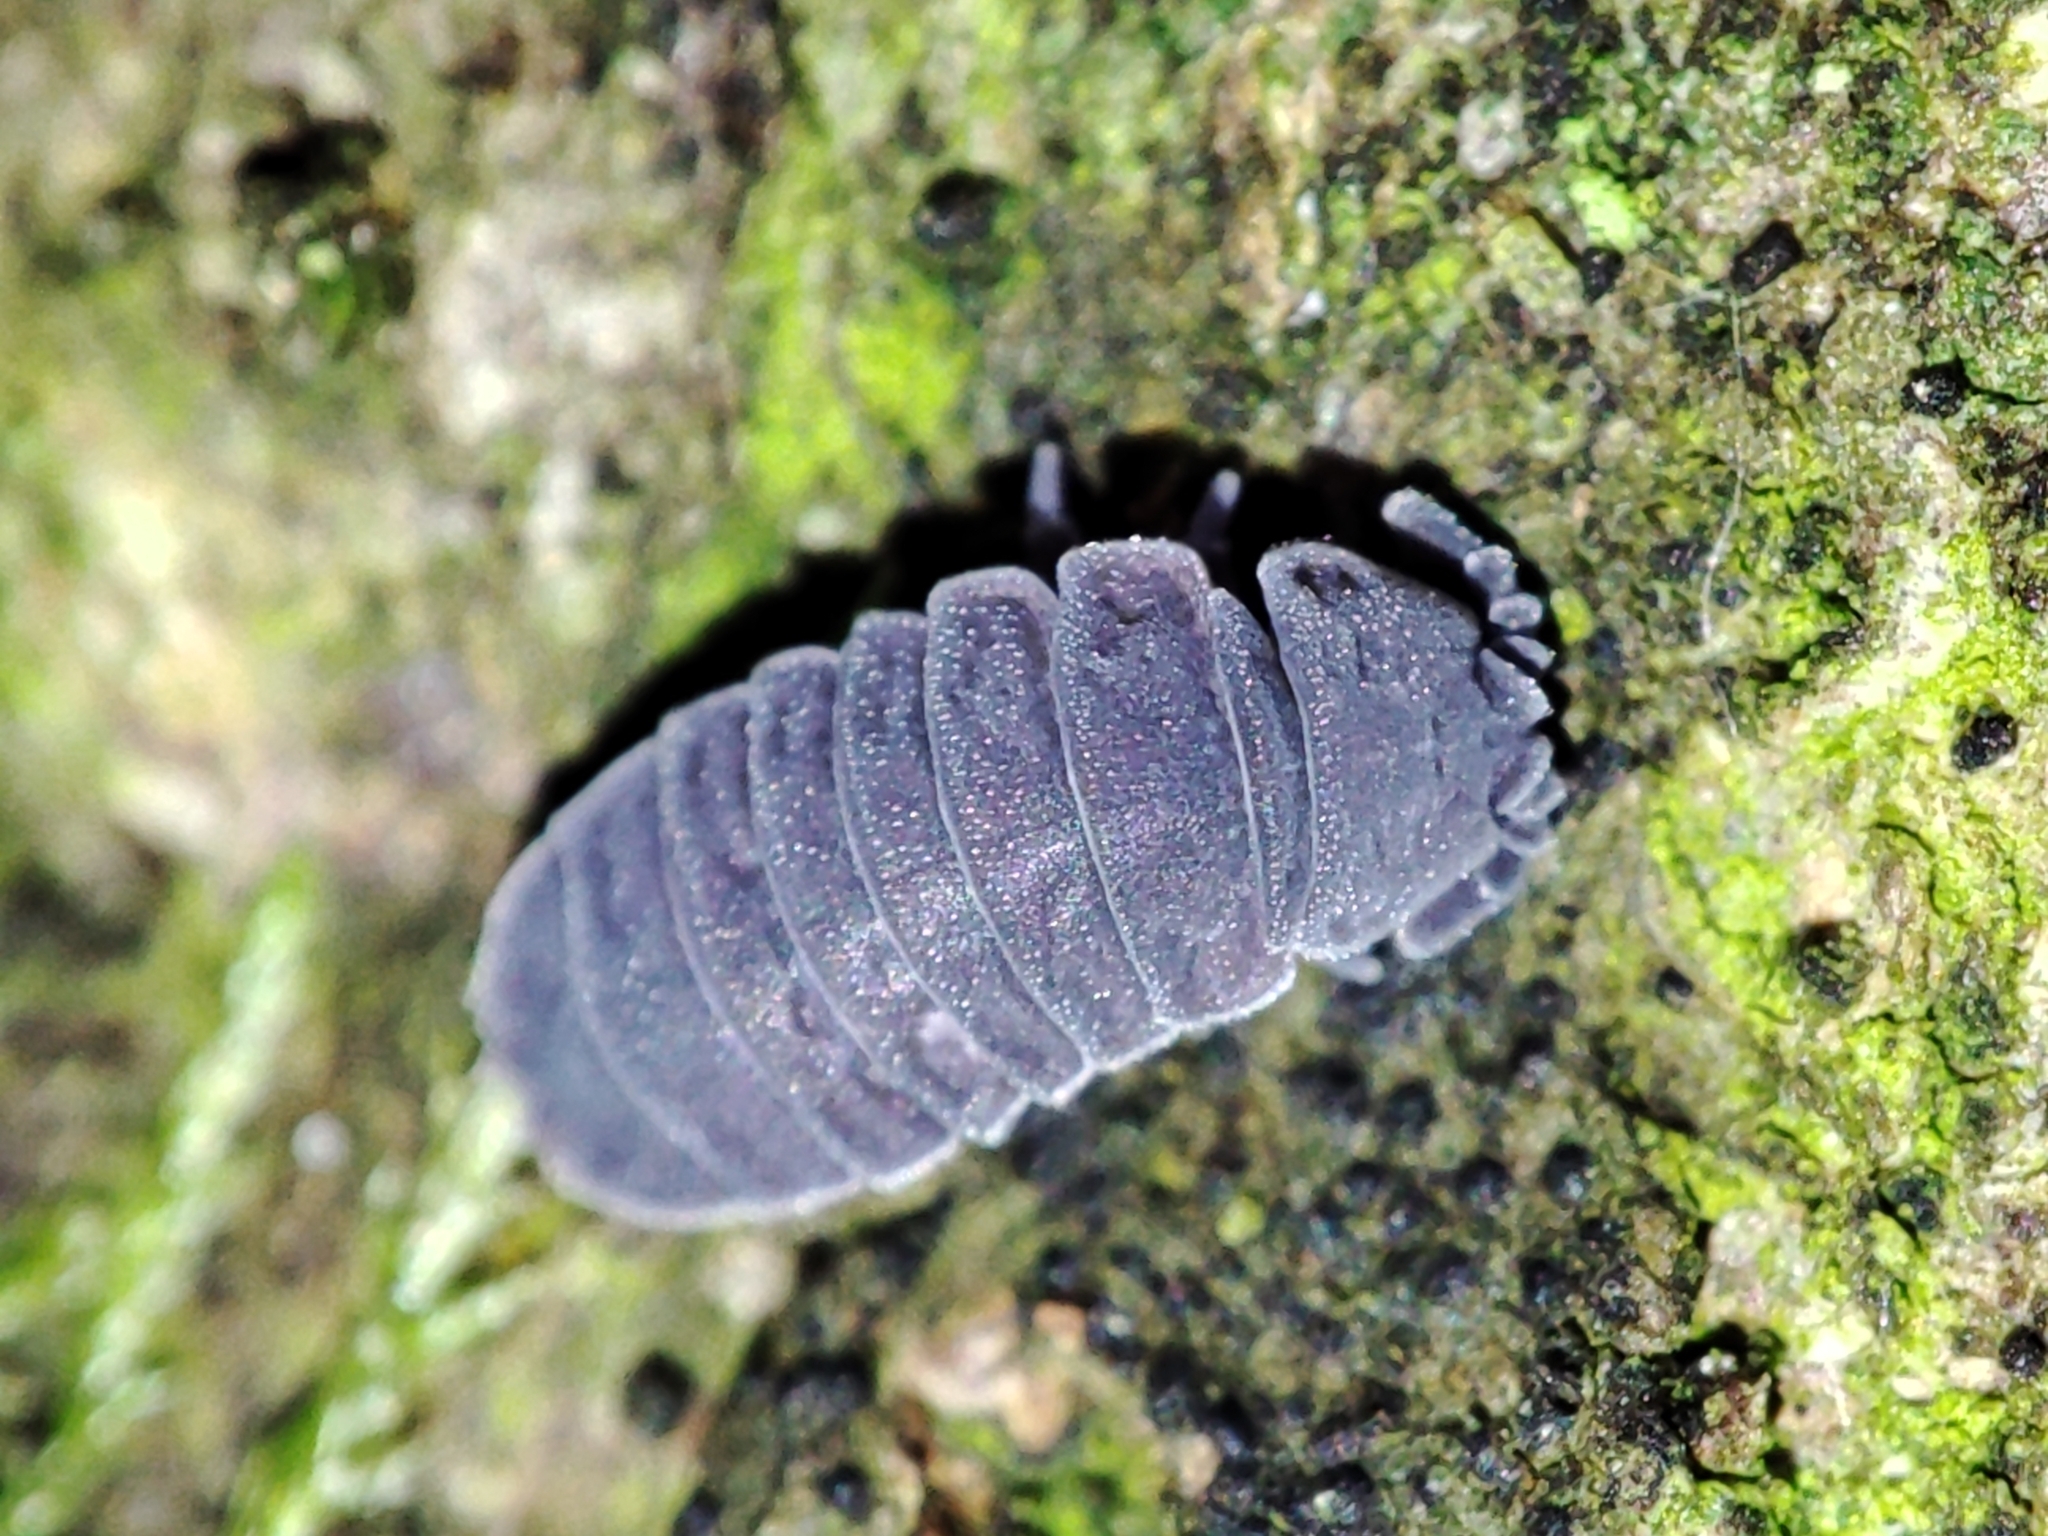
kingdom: Animalia
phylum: Arthropoda
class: Collembola
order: Poduromorpha
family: Onychiuridae
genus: Tetrodontophora
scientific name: Tetrodontophora bielanensis
